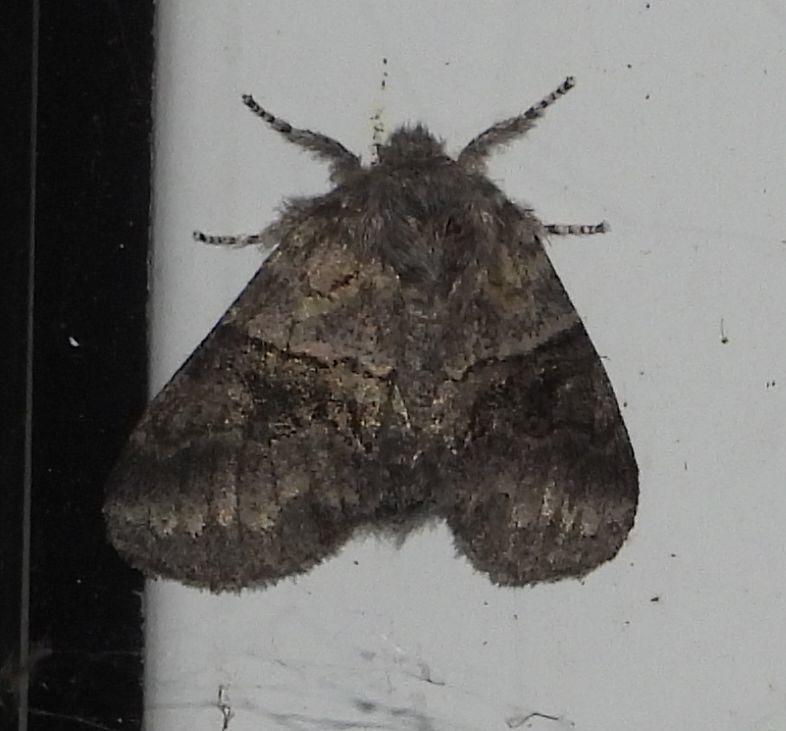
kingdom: Animalia
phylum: Arthropoda
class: Insecta
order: Lepidoptera
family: Notodontidae
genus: Gluphisia
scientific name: Gluphisia septentrionis
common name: Common gluphisia
